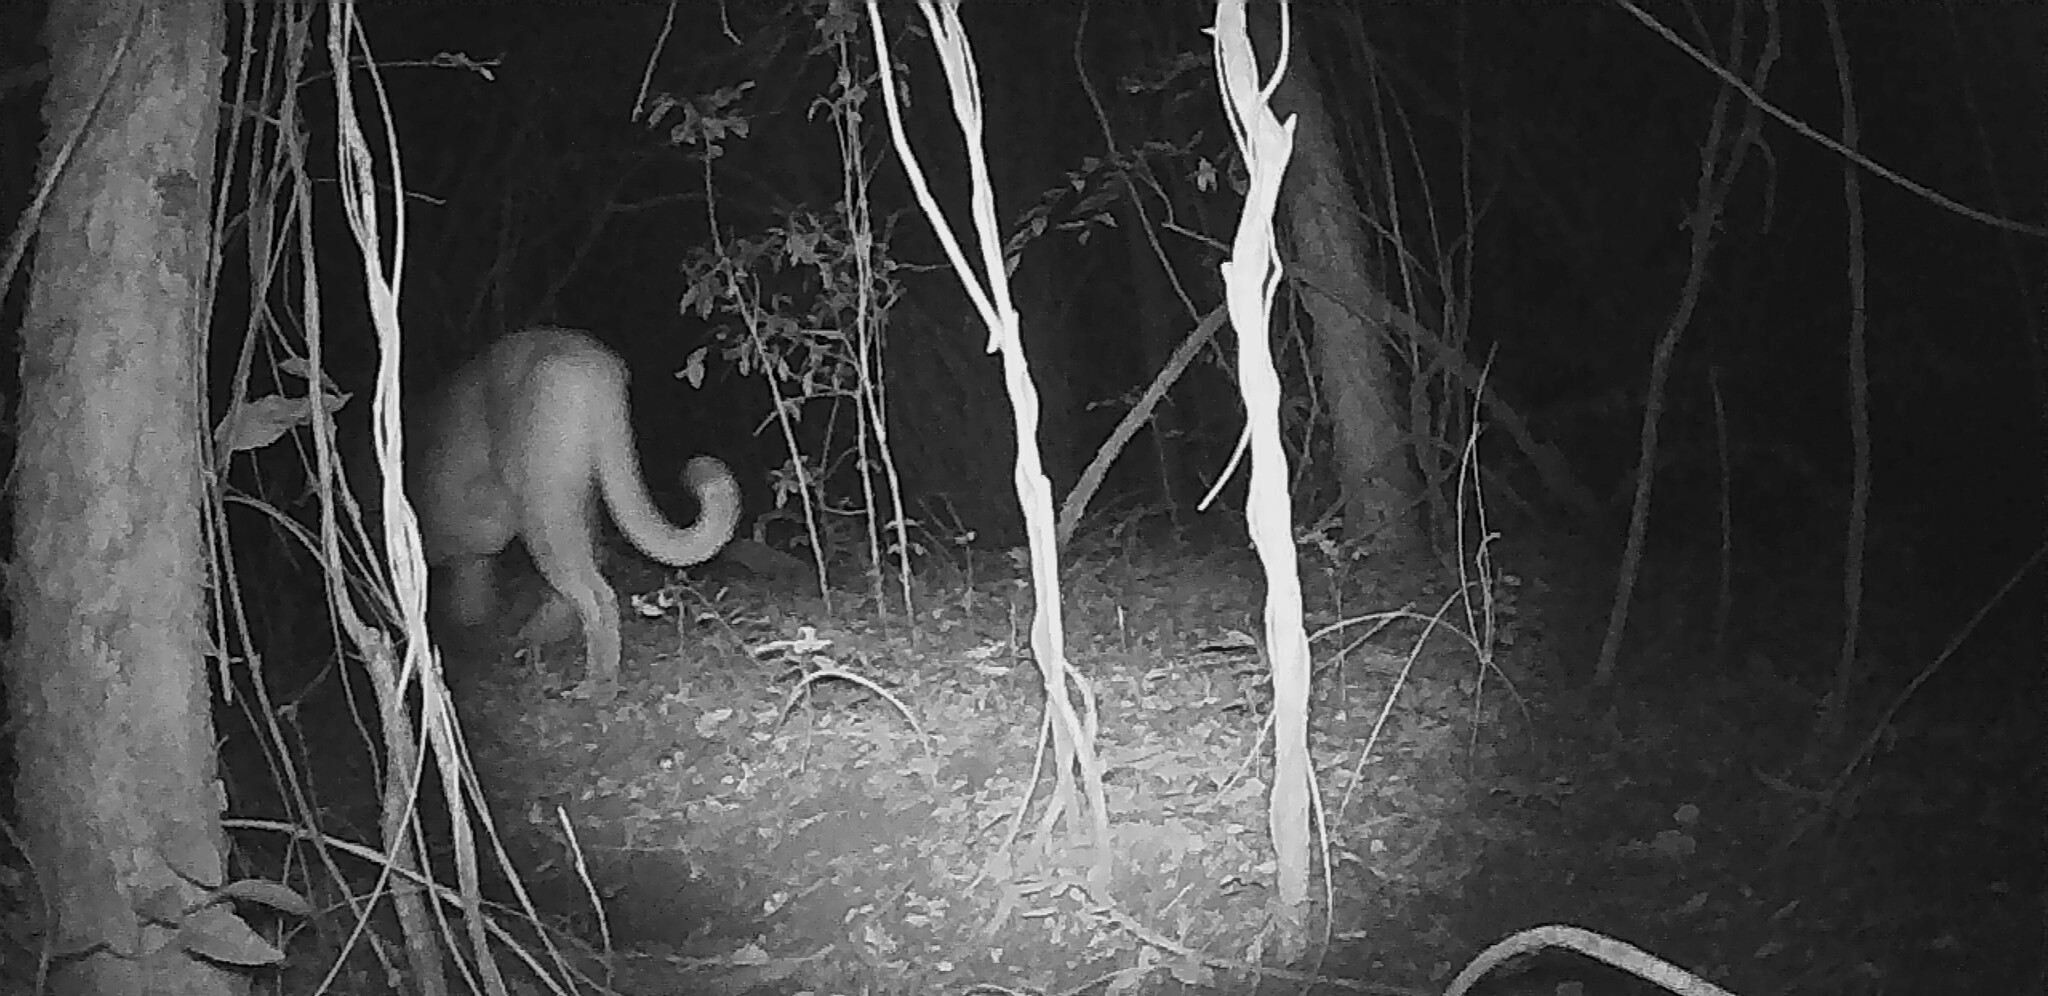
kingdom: Animalia
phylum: Chordata
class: Mammalia
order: Carnivora
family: Felidae
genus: Puma
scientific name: Puma concolor
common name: Puma
